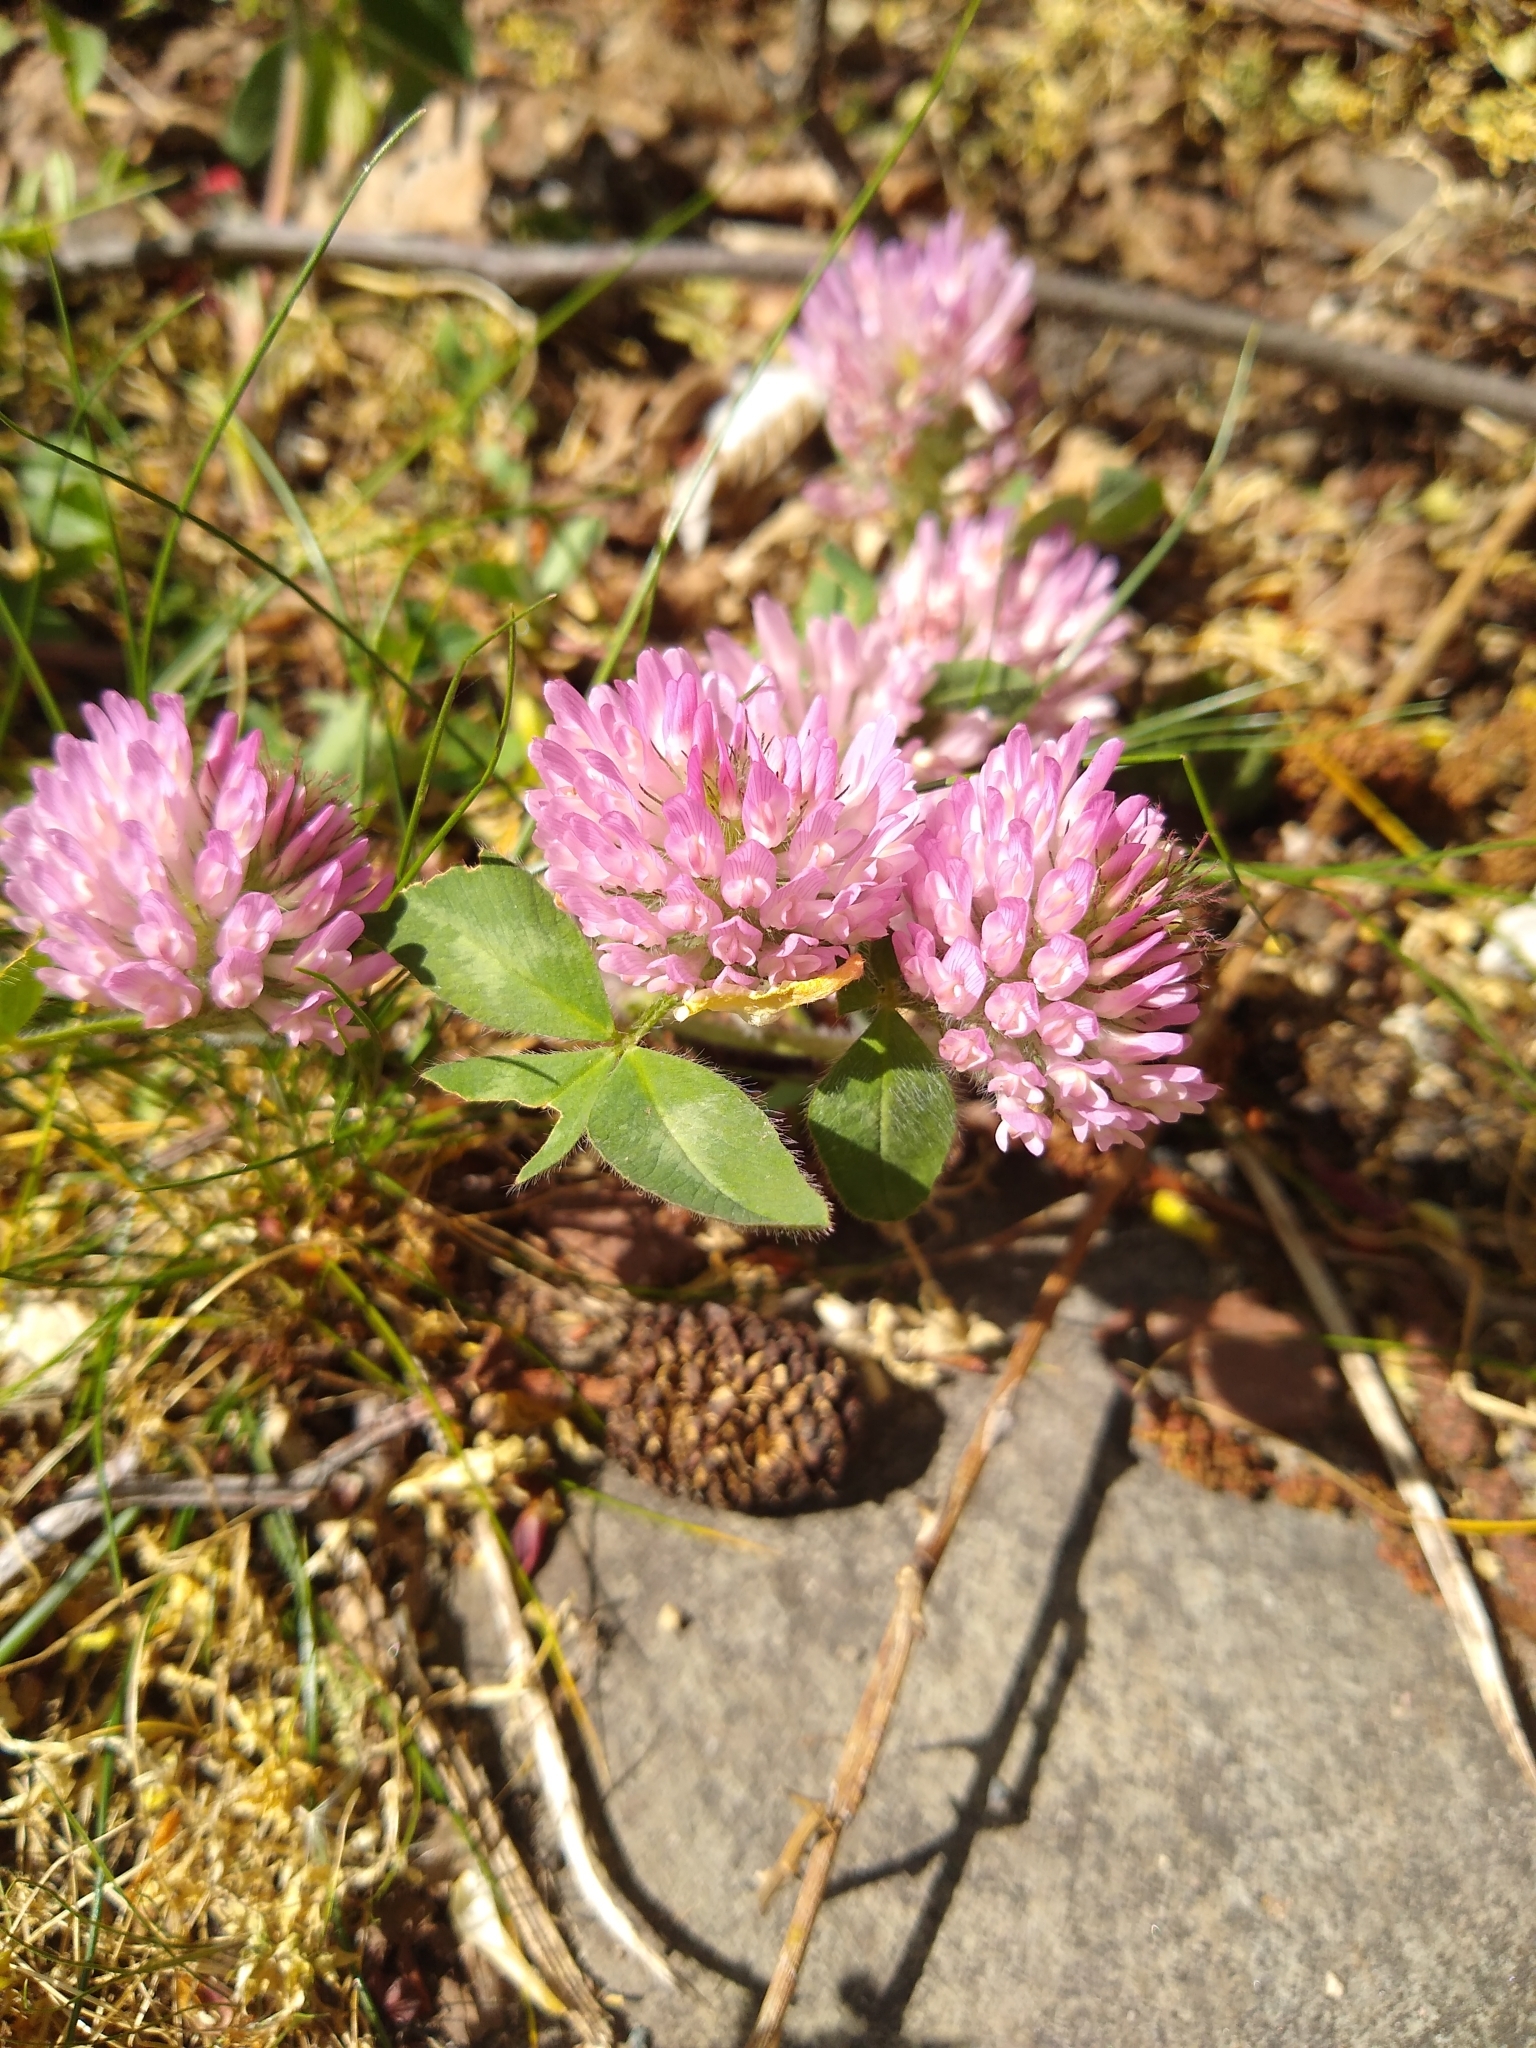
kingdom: Plantae
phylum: Tracheophyta
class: Magnoliopsida
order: Fabales
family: Fabaceae
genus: Trifolium
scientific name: Trifolium pratense
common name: Red clover
